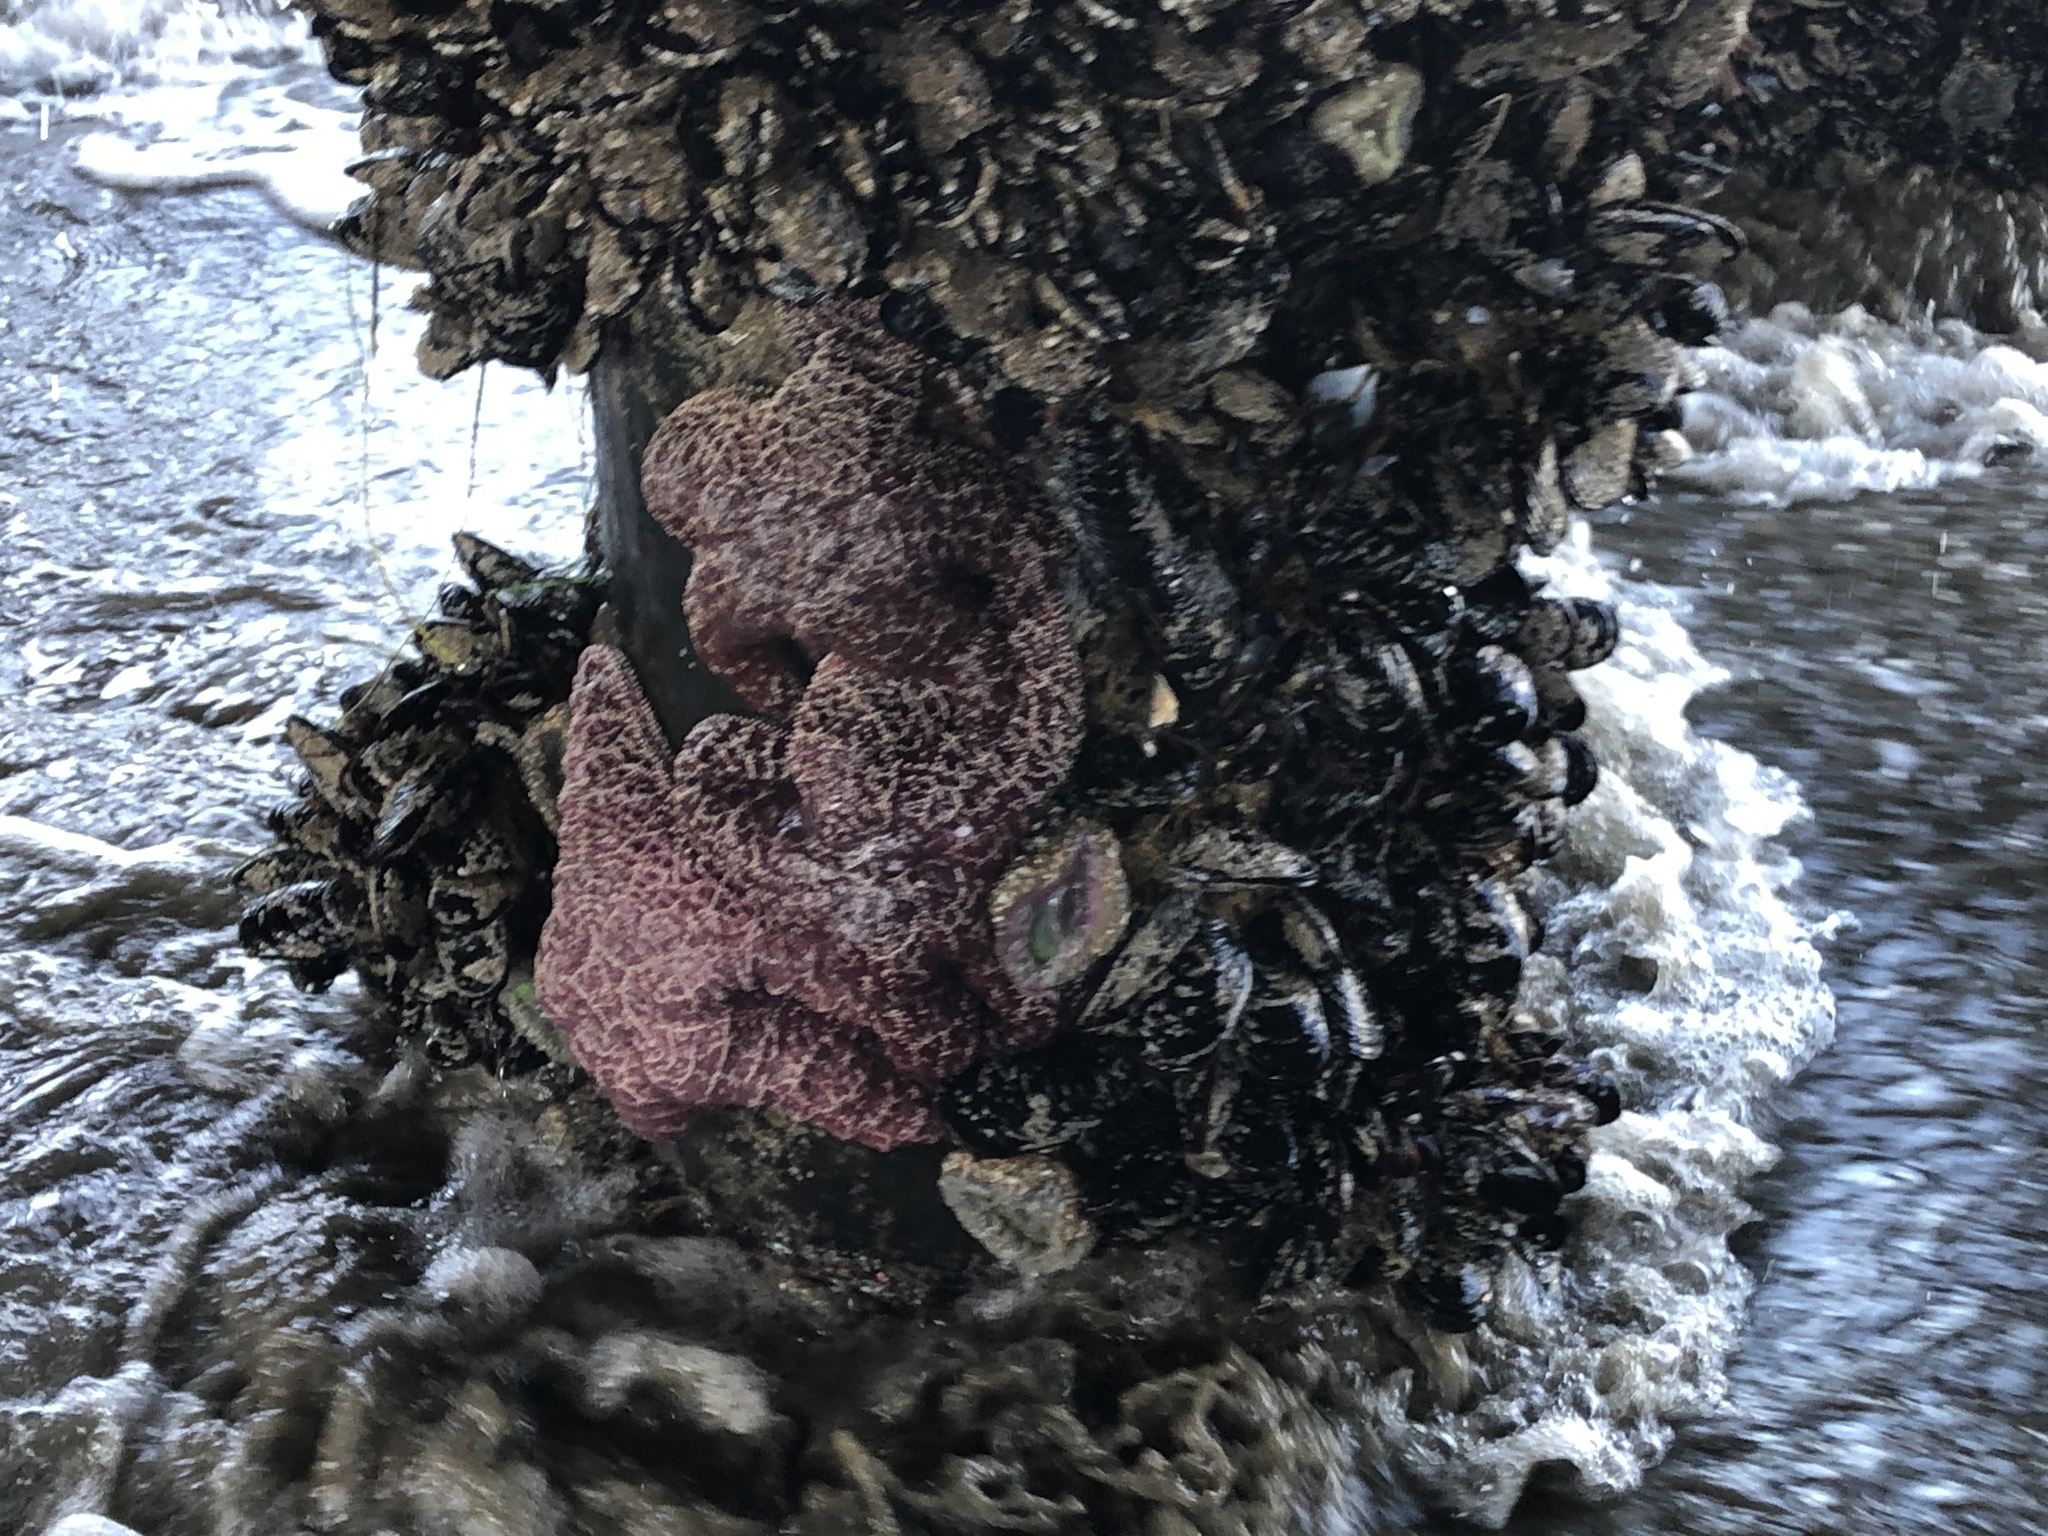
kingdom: Animalia
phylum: Echinodermata
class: Asteroidea
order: Forcipulatida
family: Asteriidae
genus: Pisaster
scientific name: Pisaster ochraceus
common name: Ochre stars
